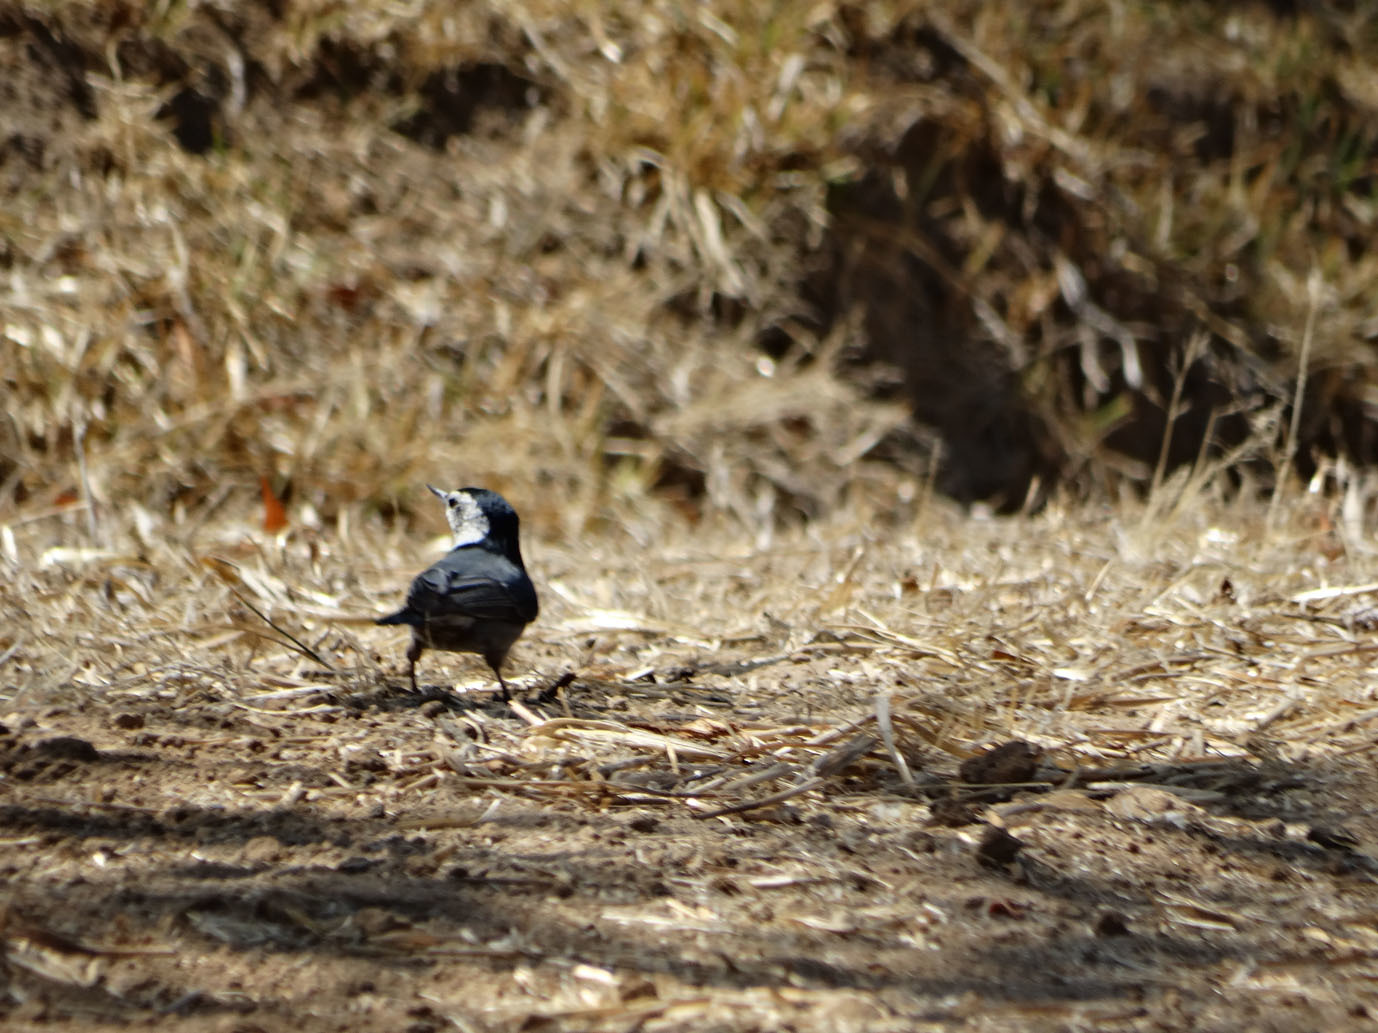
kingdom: Animalia
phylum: Chordata
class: Aves
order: Passeriformes
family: Sittidae
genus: Sitta
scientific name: Sitta carolinensis
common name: White-breasted nuthatch
